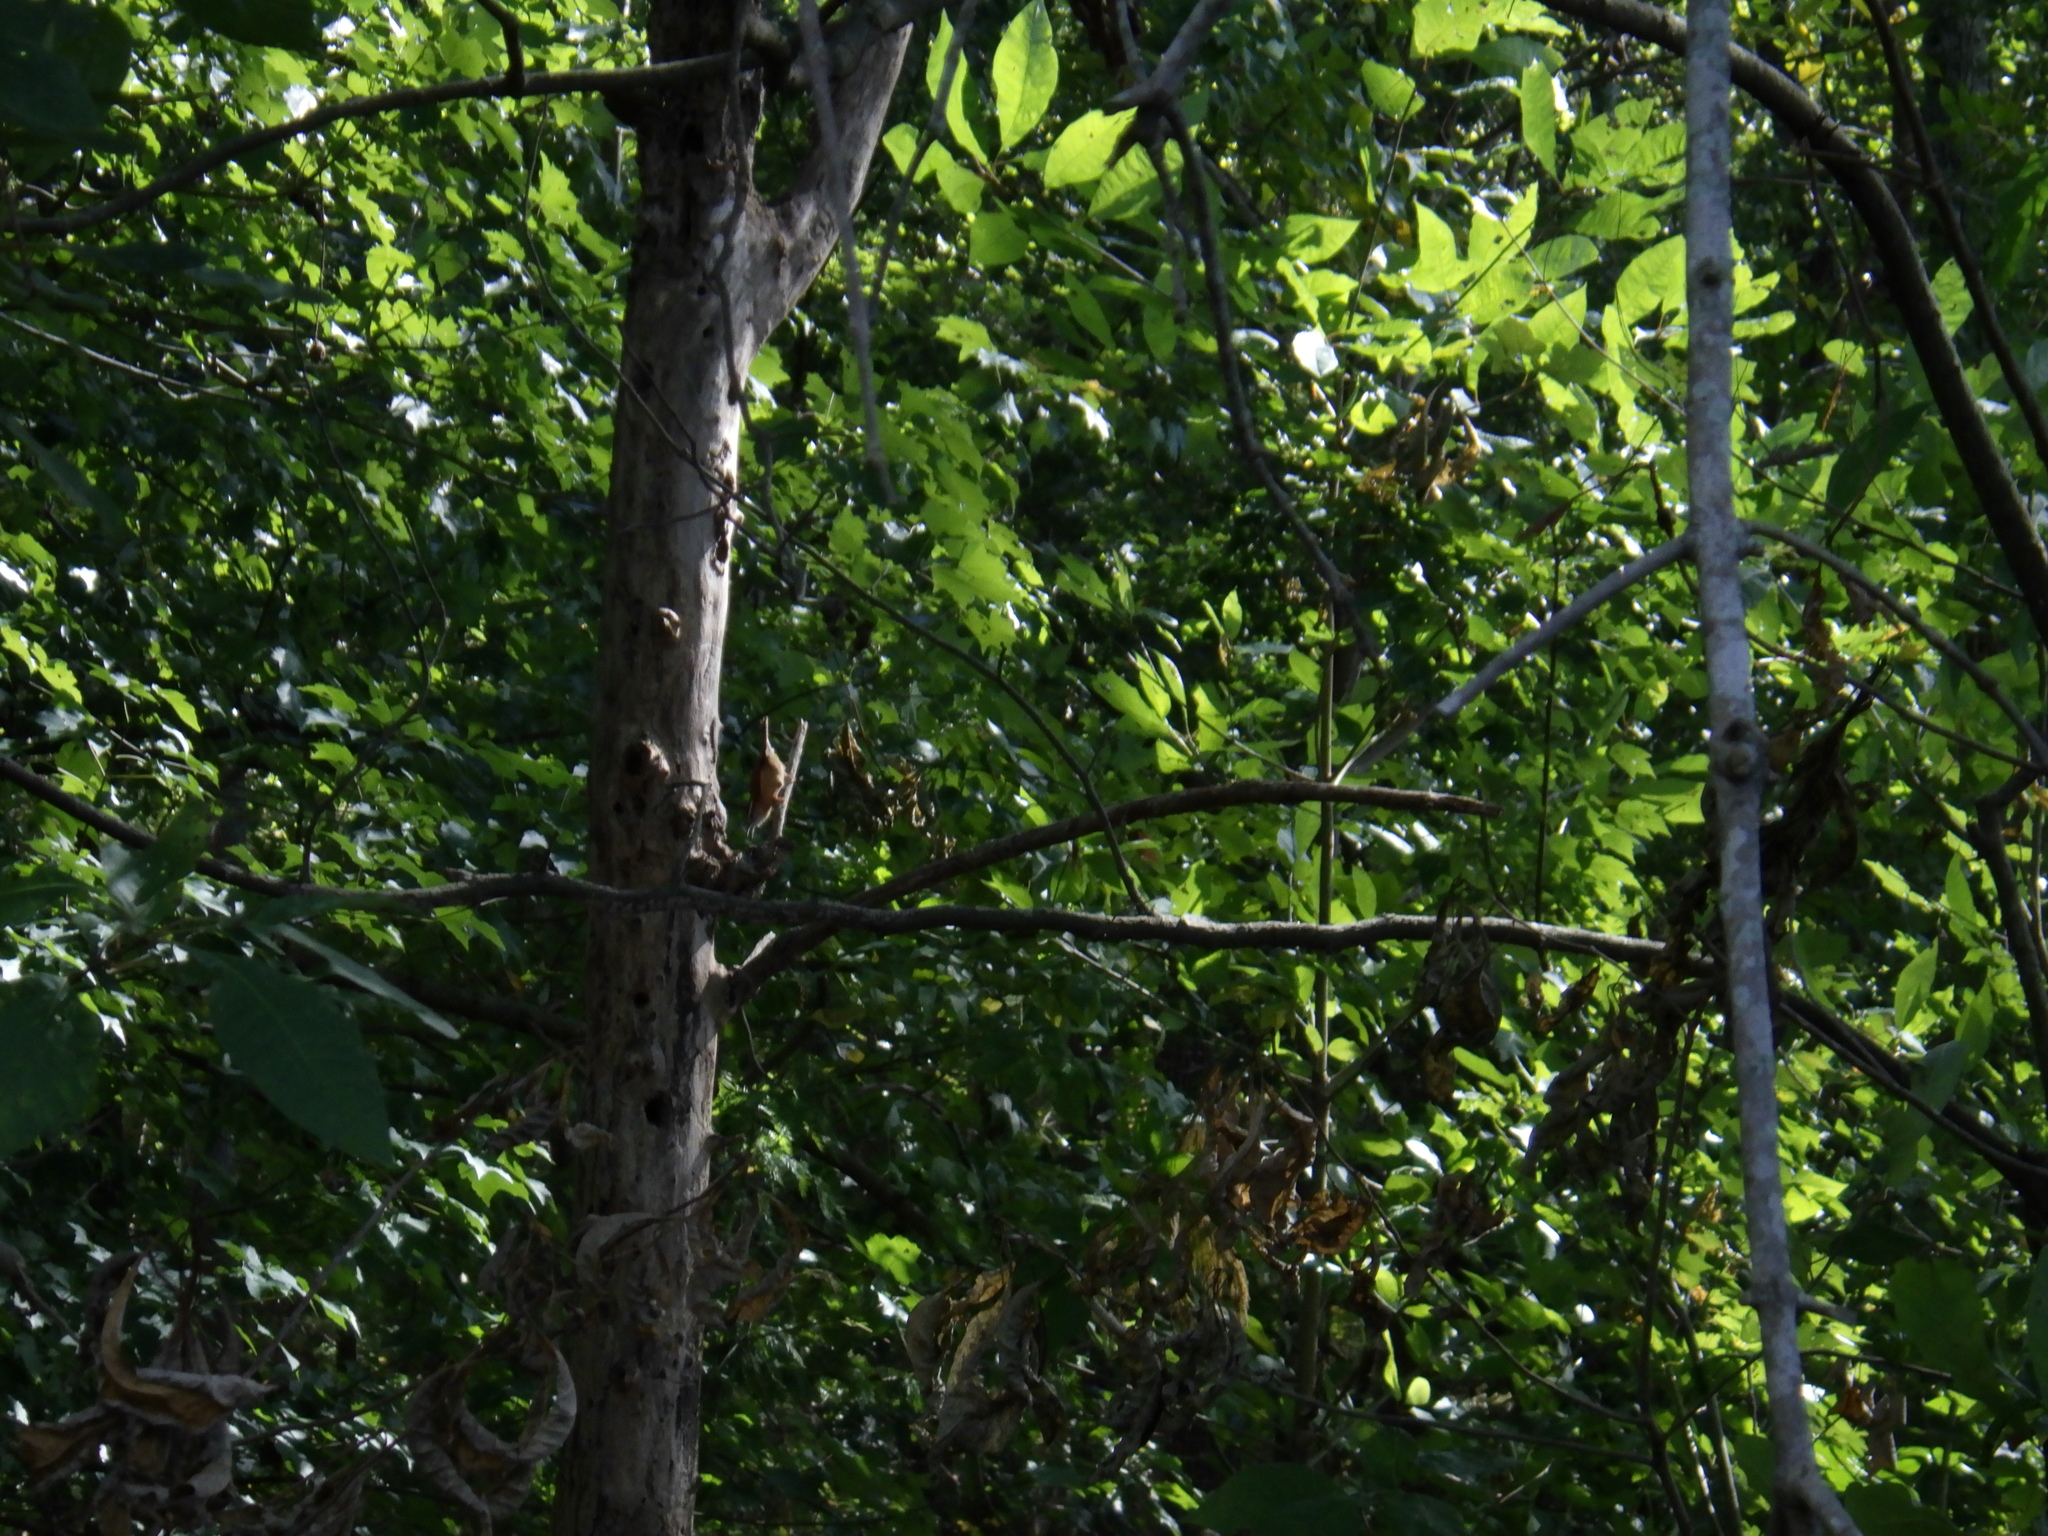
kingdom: Animalia
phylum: Chordata
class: Aves
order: Passeriformes
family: Troglodytidae
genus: Thryothorus
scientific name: Thryothorus ludovicianus
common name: Carolina wren
